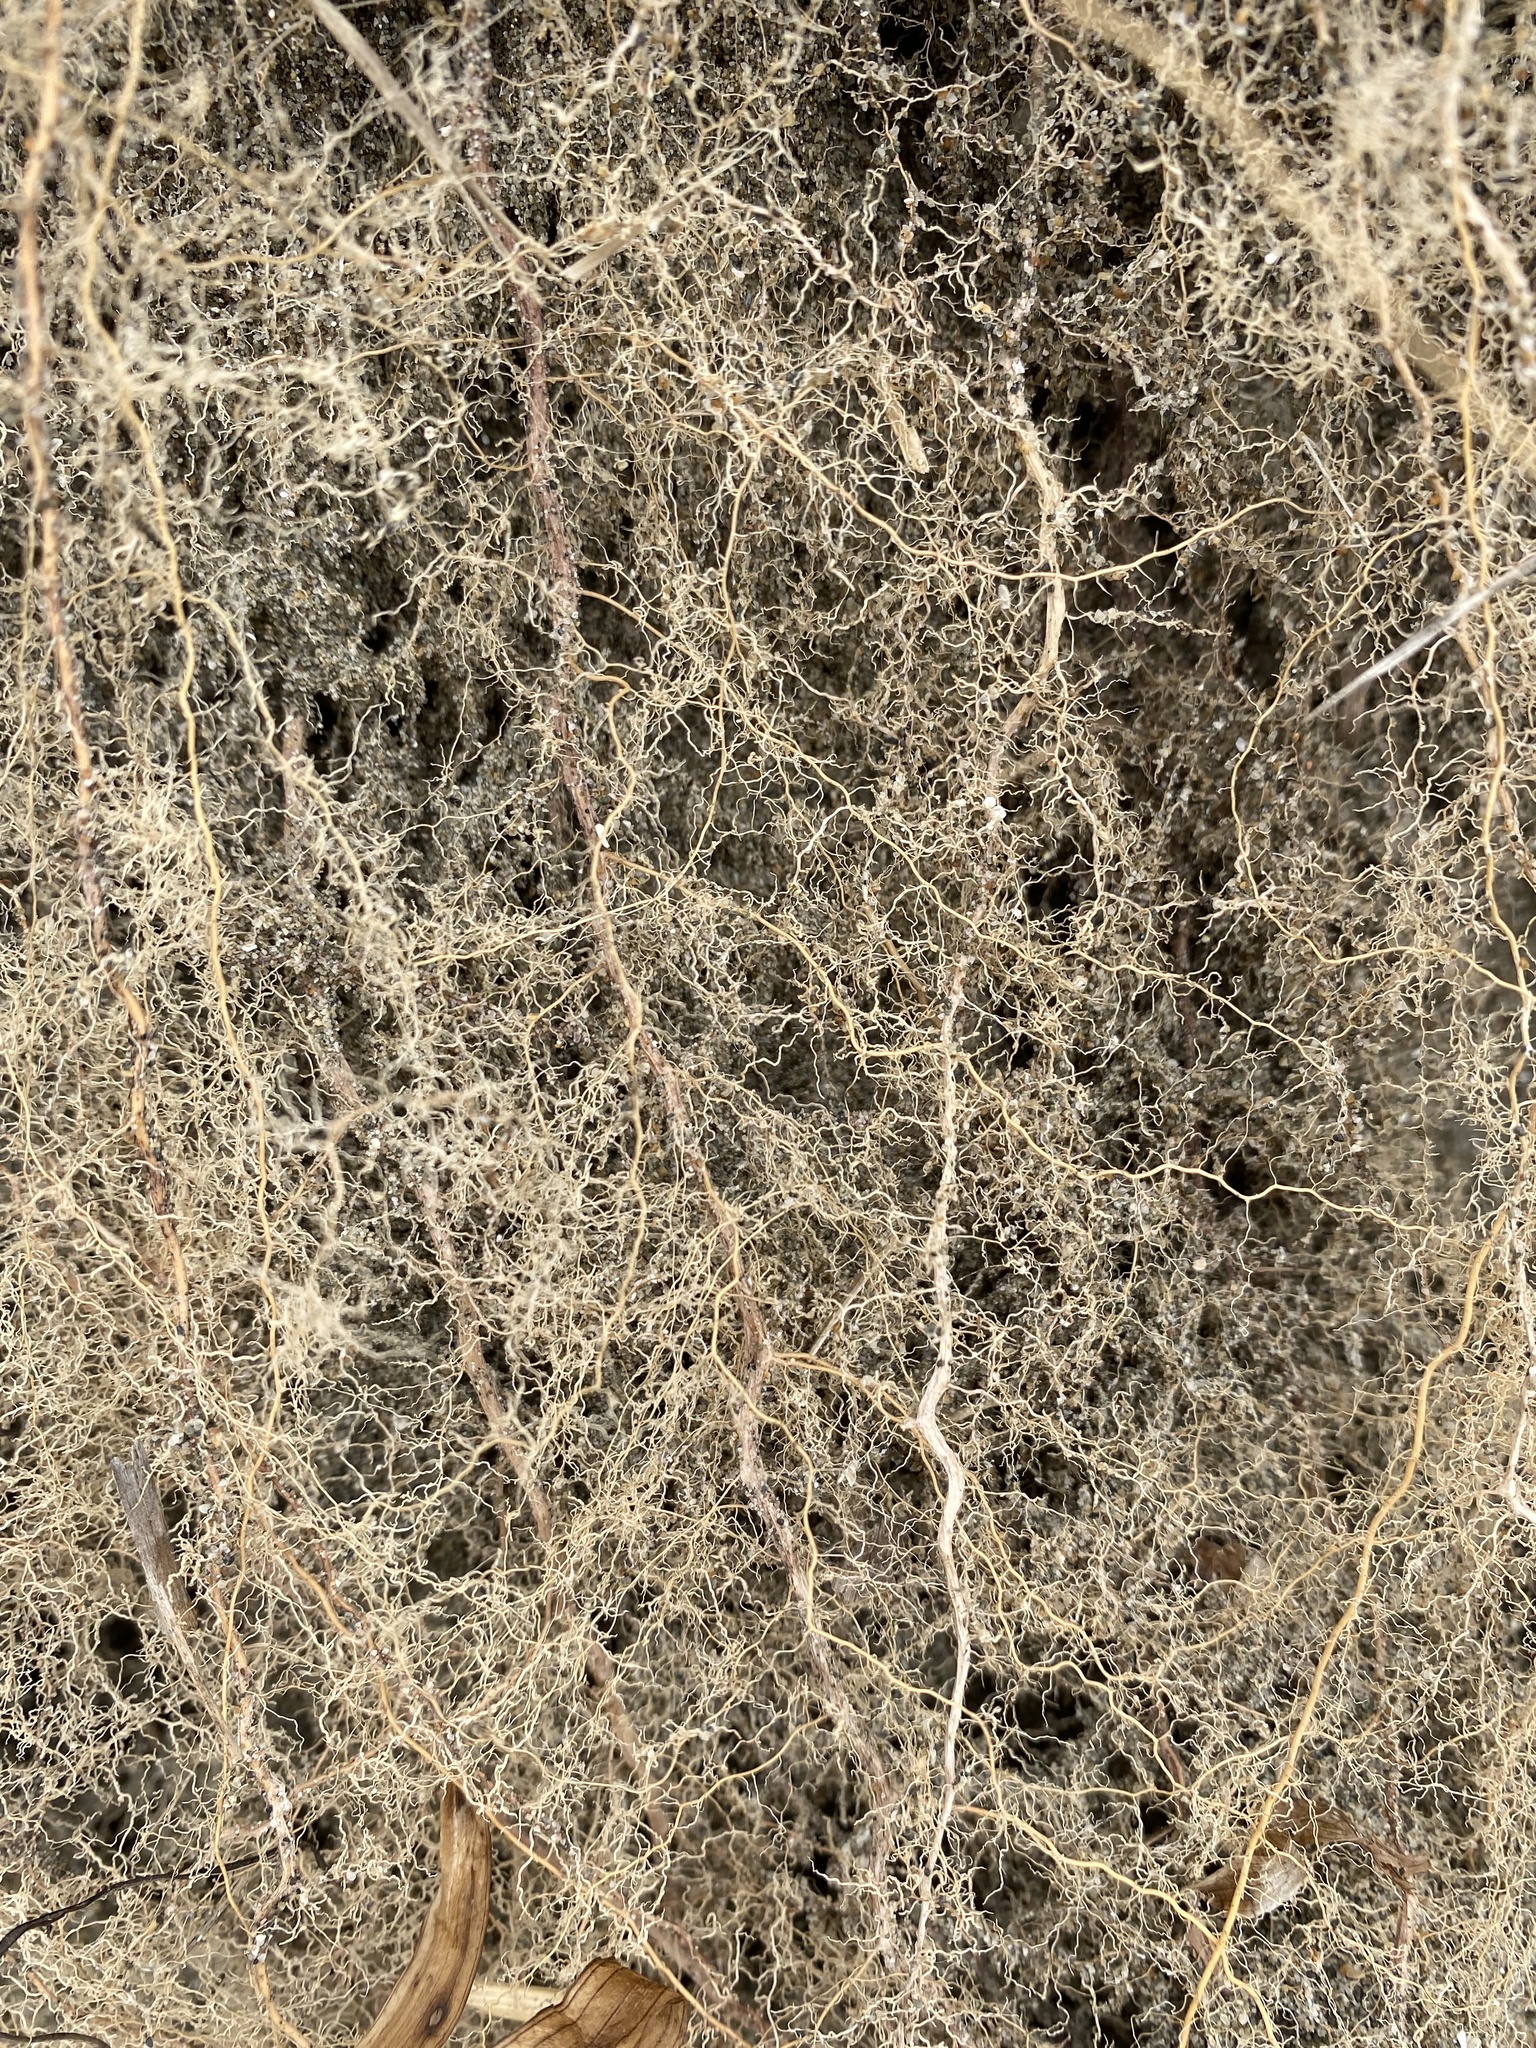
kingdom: Plantae
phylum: Tracheophyta
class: Liliopsida
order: Poales
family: Poaceae
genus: Calamagrostis
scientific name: Calamagrostis arenaria
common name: European beachgrass
